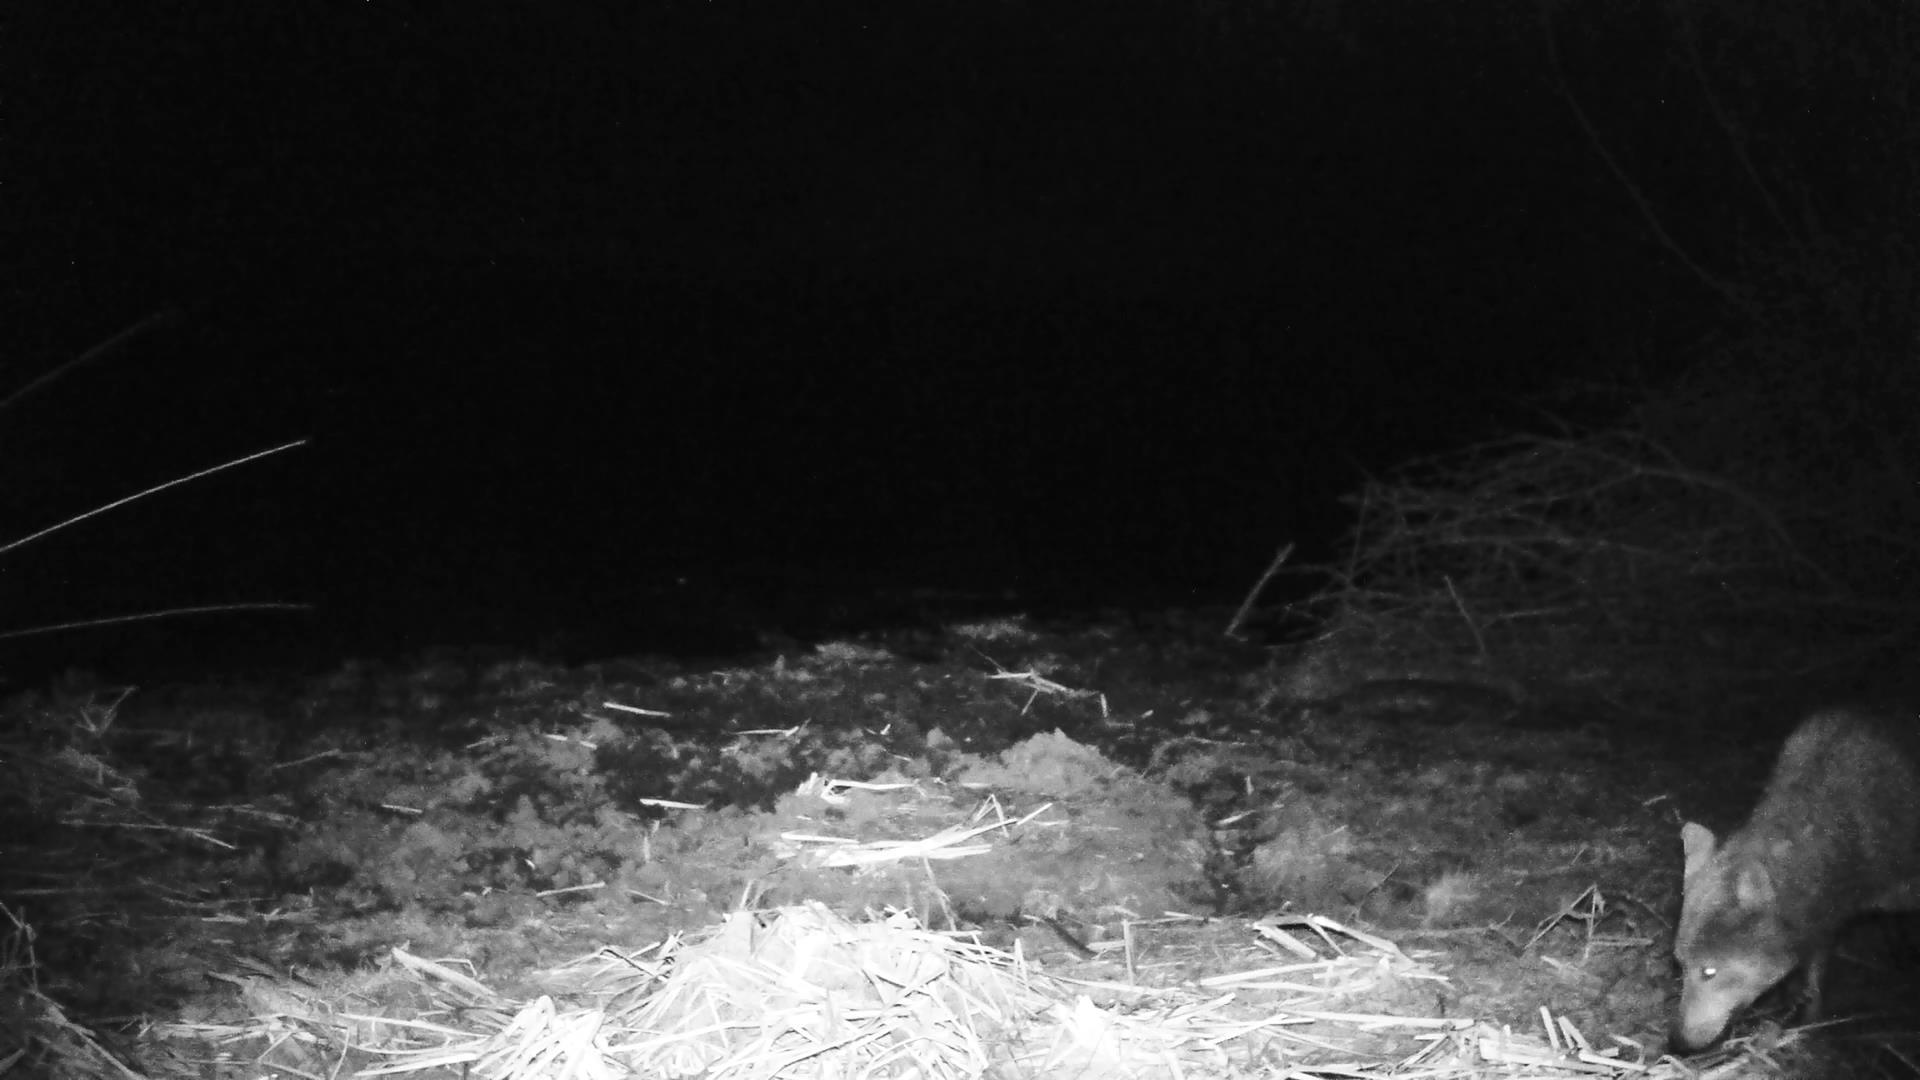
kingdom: Animalia
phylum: Chordata
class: Mammalia
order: Carnivora
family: Canidae
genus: Canis
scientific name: Canis lupus
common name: Gray wolf
